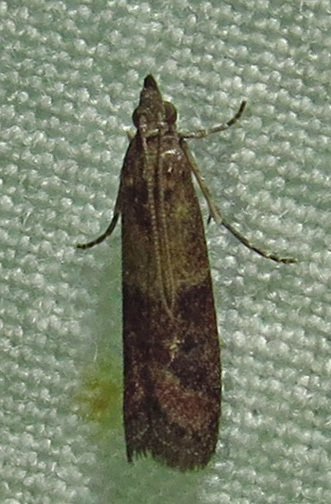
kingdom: Animalia
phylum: Arthropoda
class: Insecta
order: Lepidoptera
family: Pyralidae
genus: Ephestiodes
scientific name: Ephestiodes infimella
